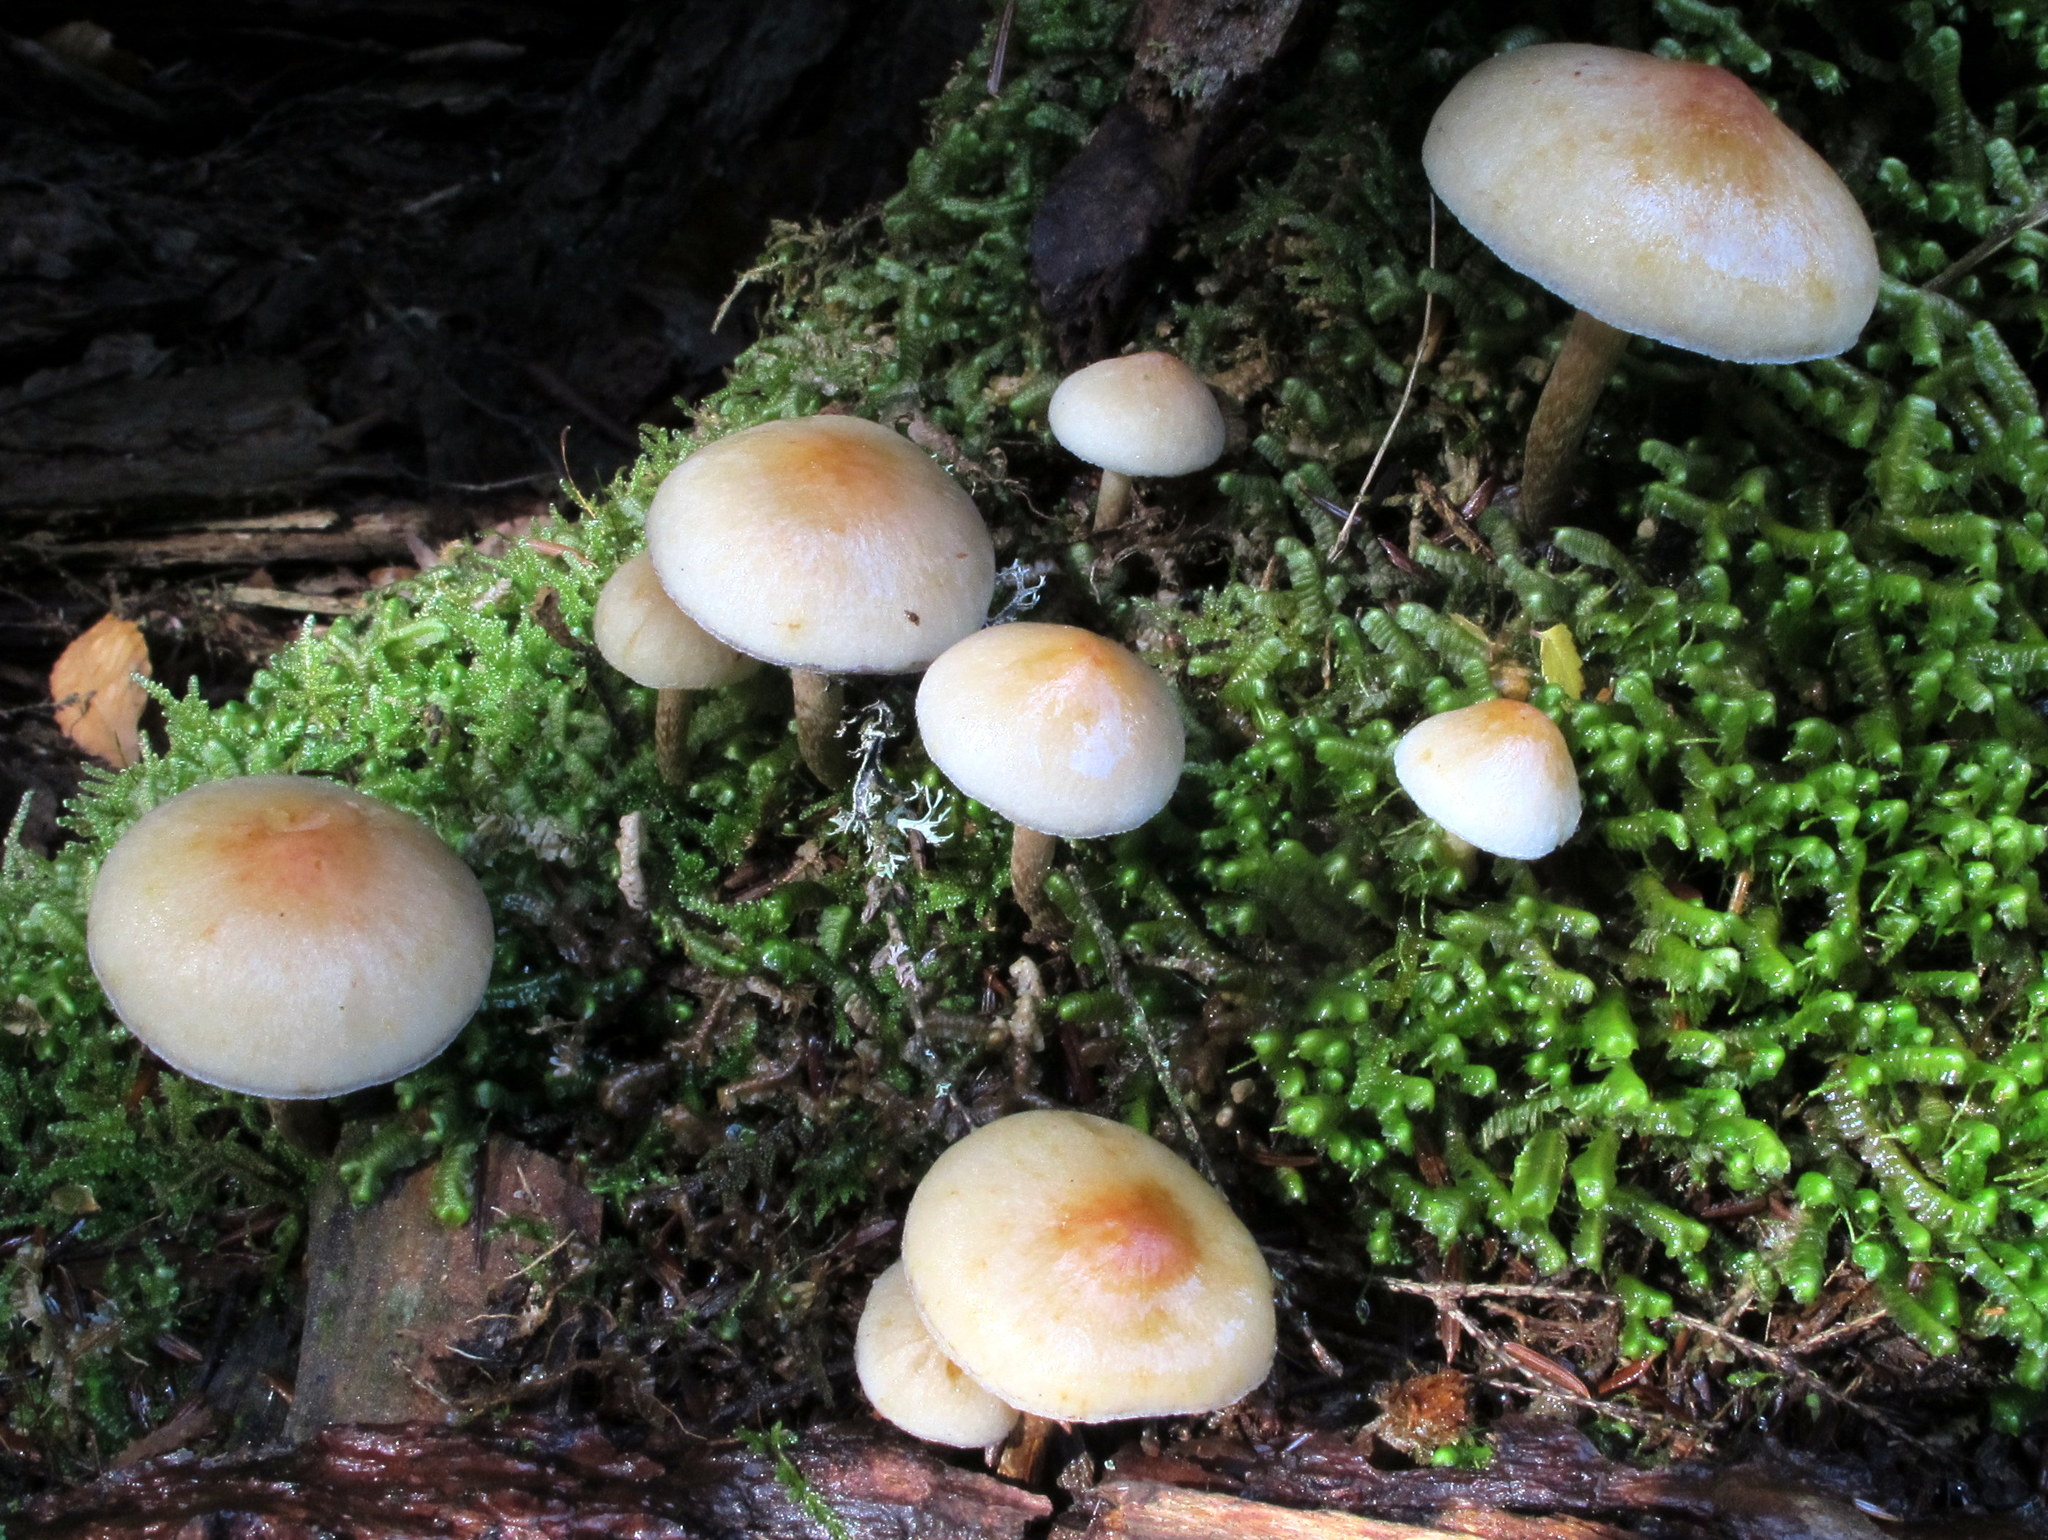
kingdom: Fungi
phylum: Basidiomycota
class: Agaricomycetes
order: Agaricales
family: Strophariaceae
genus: Hypholoma
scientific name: Hypholoma capnoides
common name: Conifer tuft
